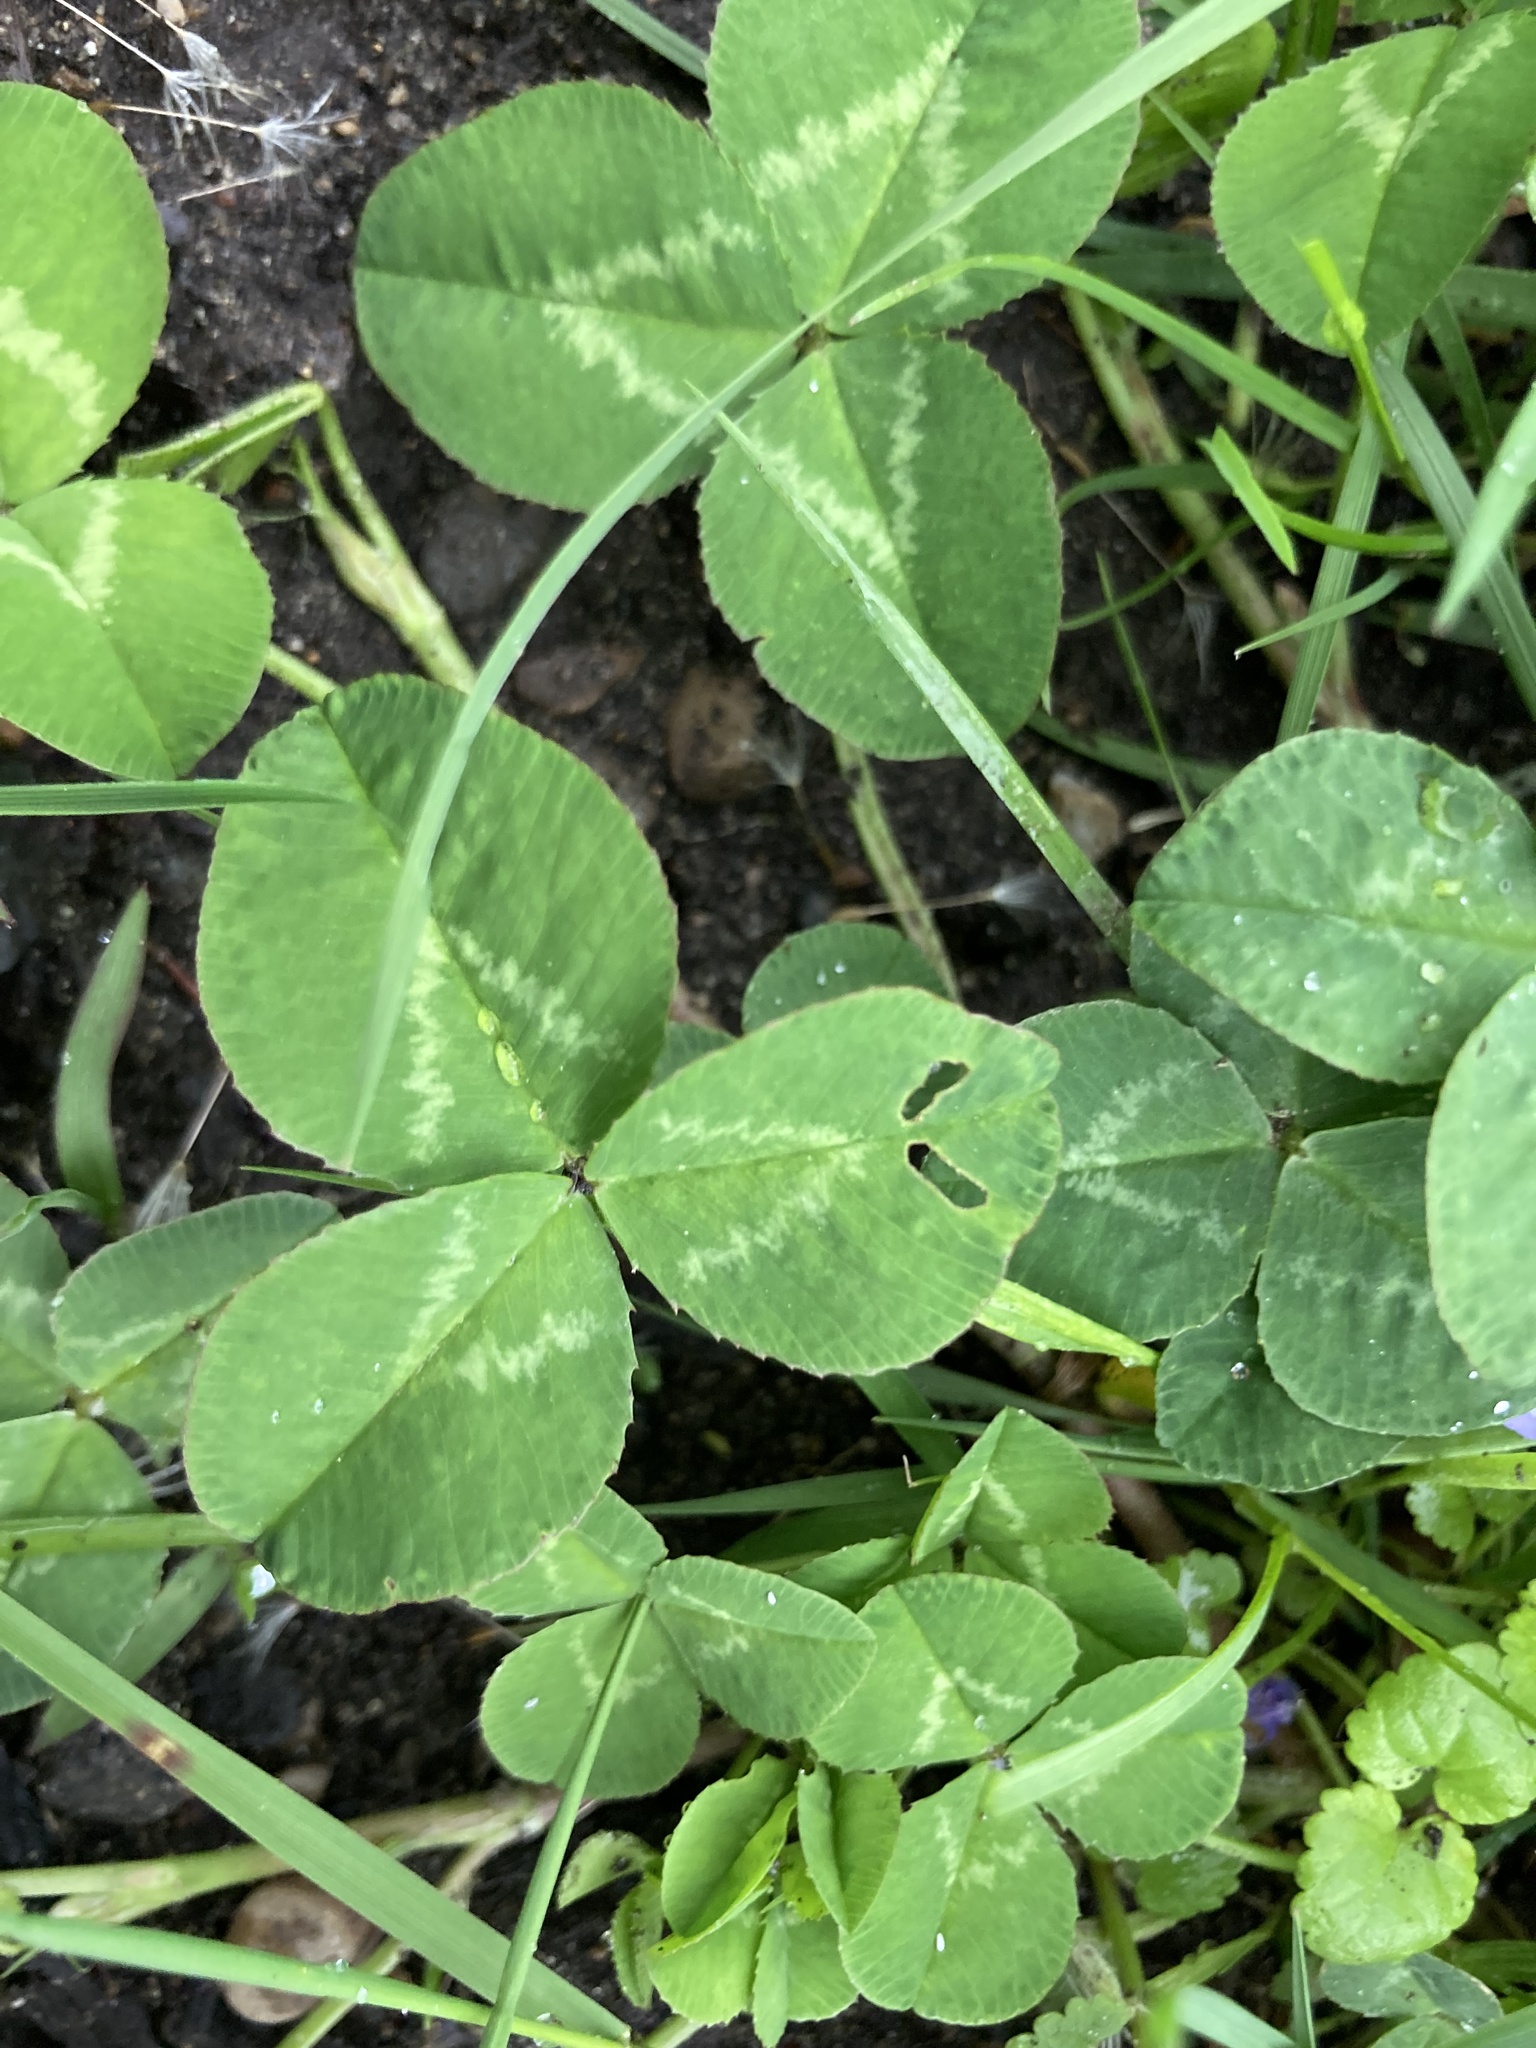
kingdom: Plantae
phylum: Tracheophyta
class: Magnoliopsida
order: Fabales
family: Fabaceae
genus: Trifolium
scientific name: Trifolium repens
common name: White clover
